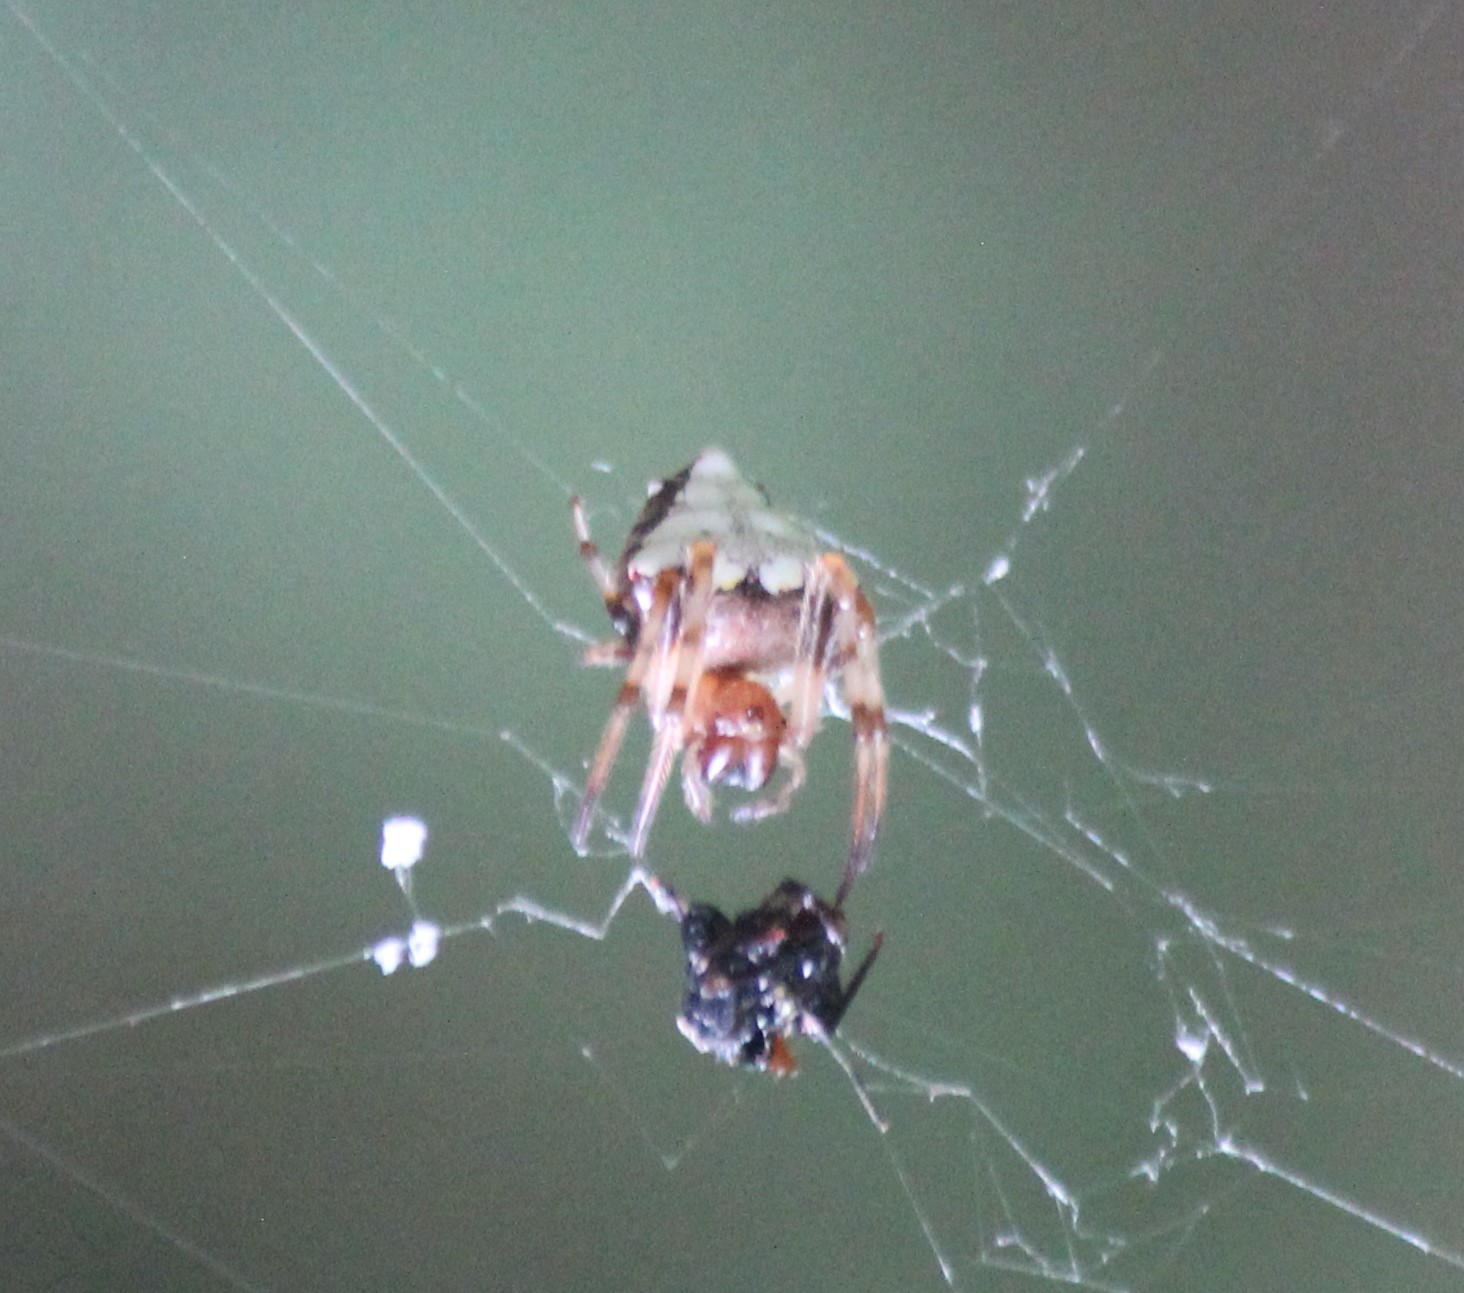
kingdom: Animalia
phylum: Arthropoda
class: Arachnida
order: Araneae
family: Araneidae
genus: Verrucosa
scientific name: Verrucosa arenata
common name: Orb weavers
